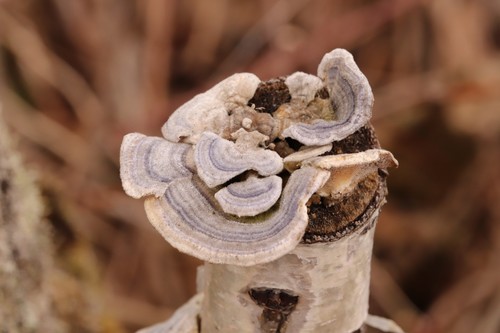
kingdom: Fungi
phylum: Basidiomycota
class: Agaricomycetes
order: Polyporales
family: Polyporaceae
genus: Trametes
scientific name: Trametes versicolor
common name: Turkeytail
